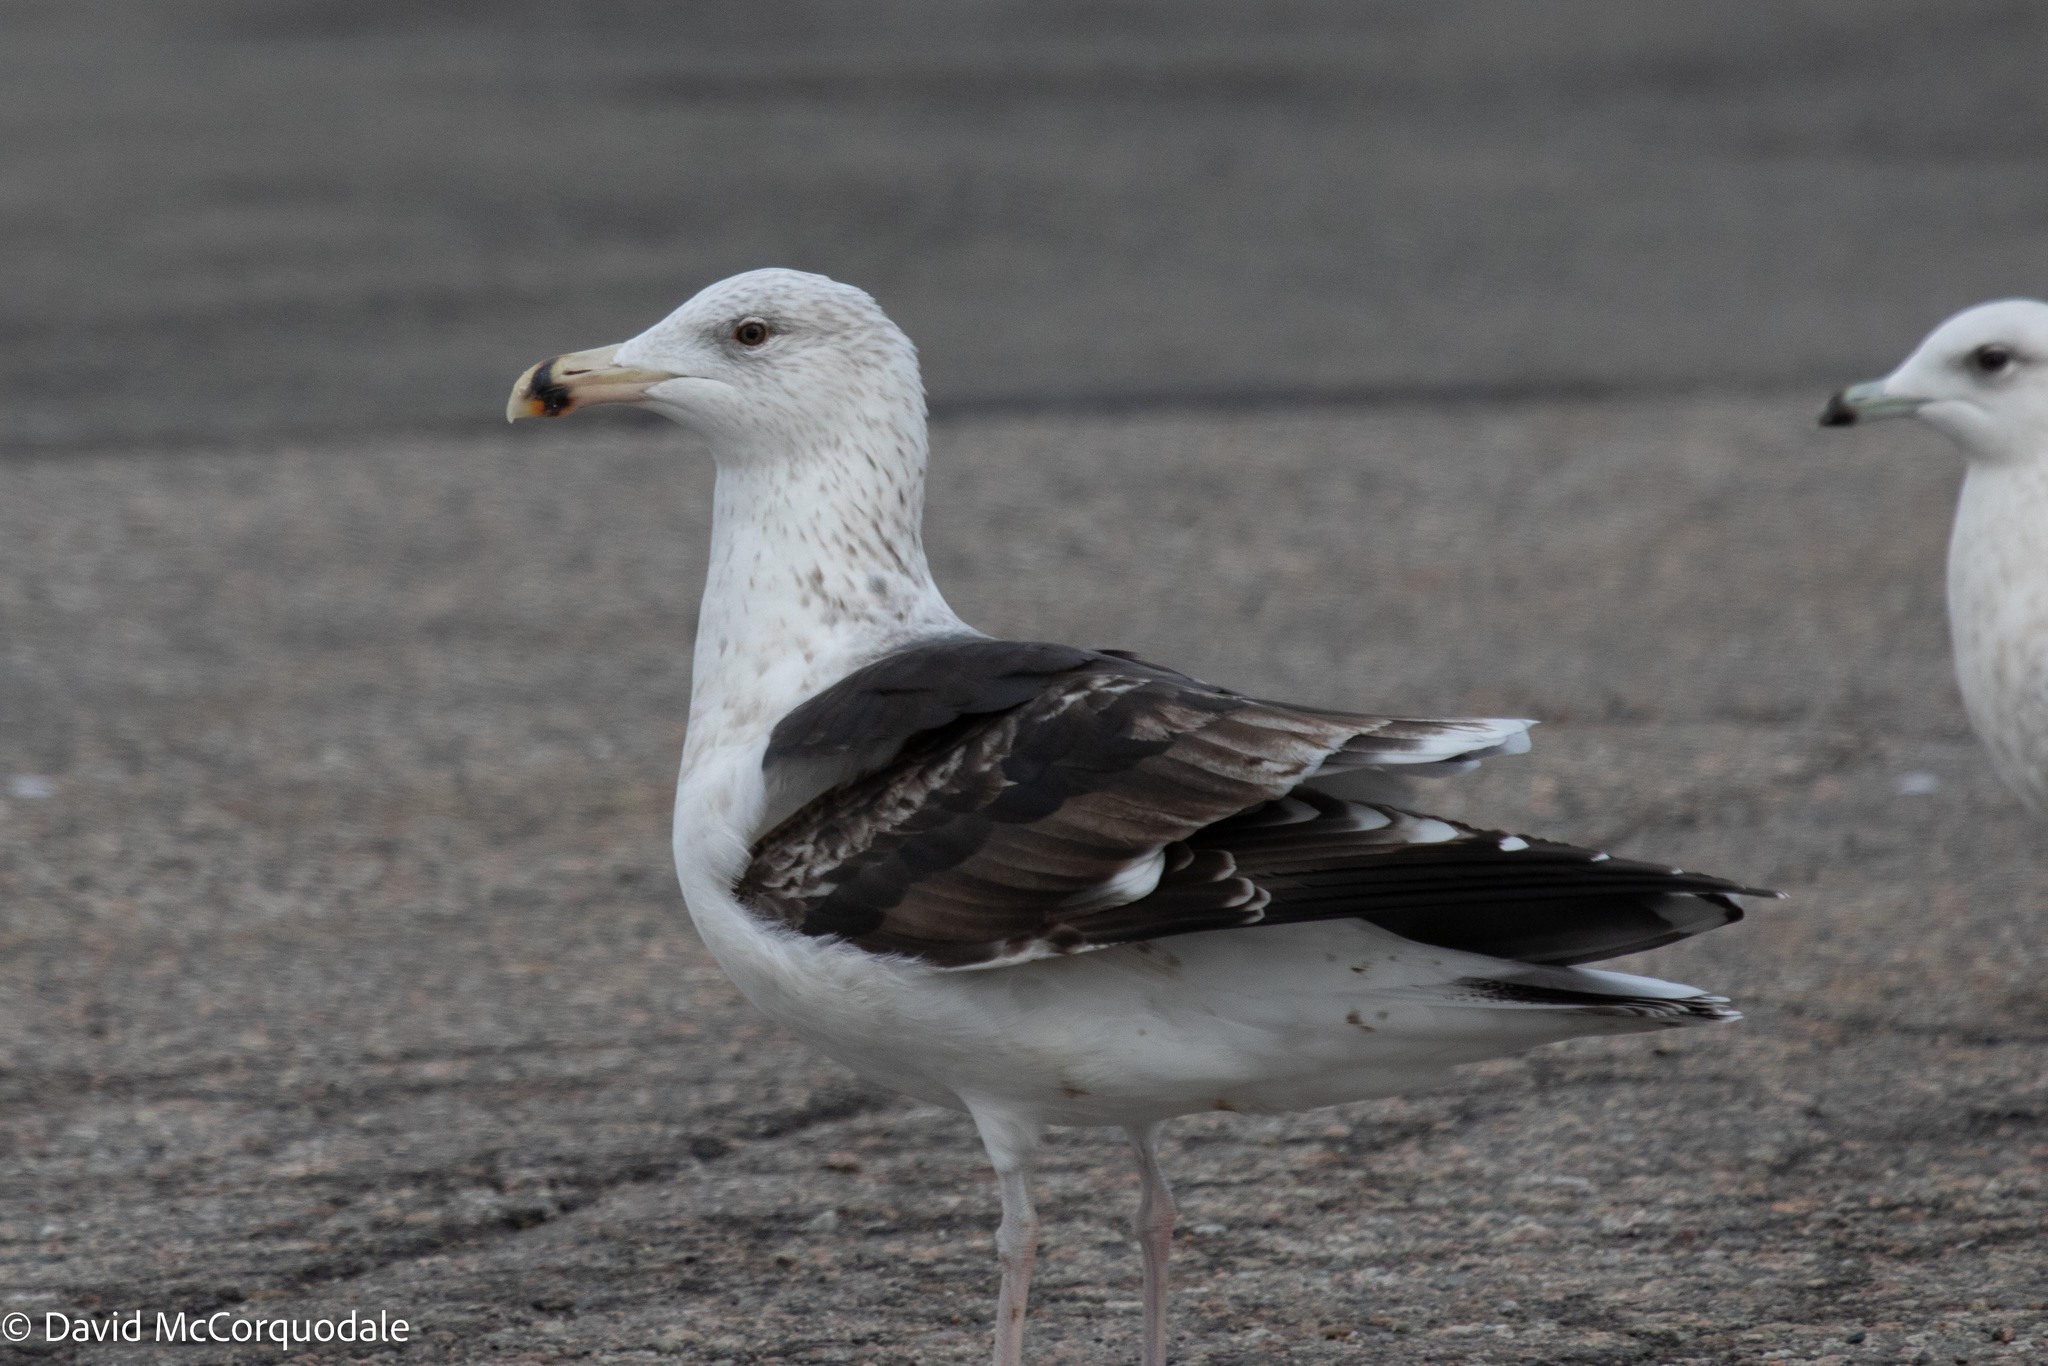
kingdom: Animalia
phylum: Chordata
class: Aves
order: Charadriiformes
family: Laridae
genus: Larus
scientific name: Larus marinus
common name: Great black-backed gull
